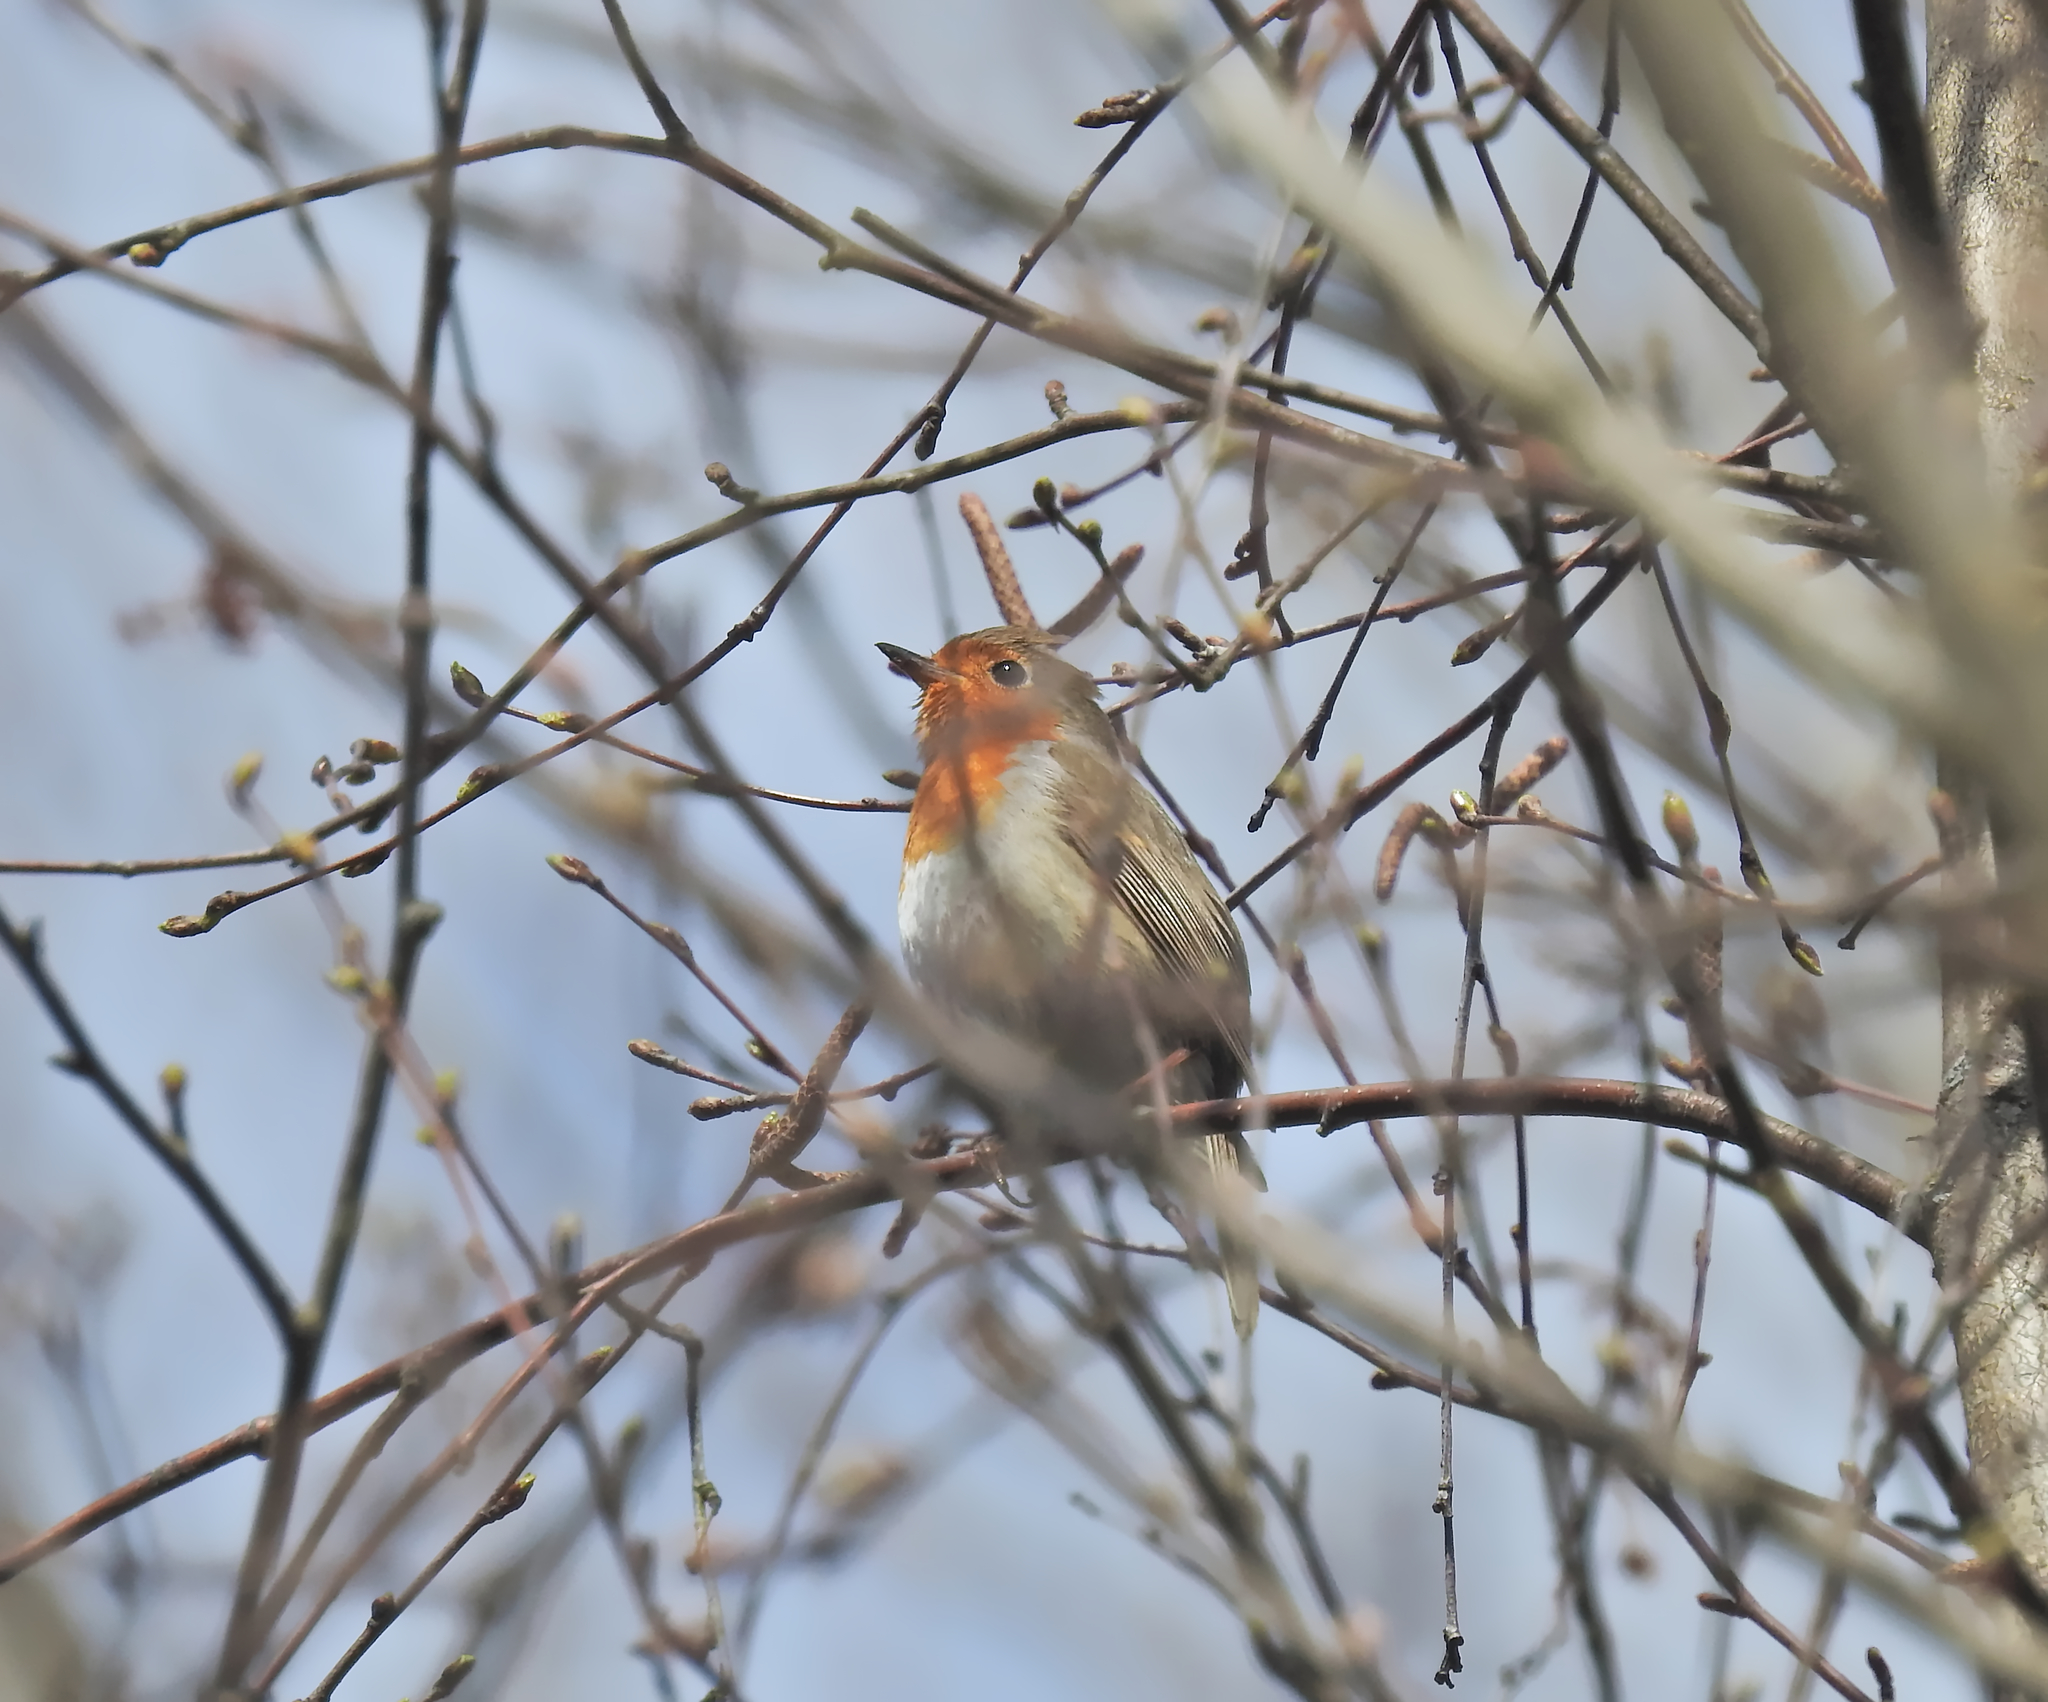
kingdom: Animalia
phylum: Chordata
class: Aves
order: Passeriformes
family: Muscicapidae
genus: Erithacus
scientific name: Erithacus rubecula
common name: European robin
